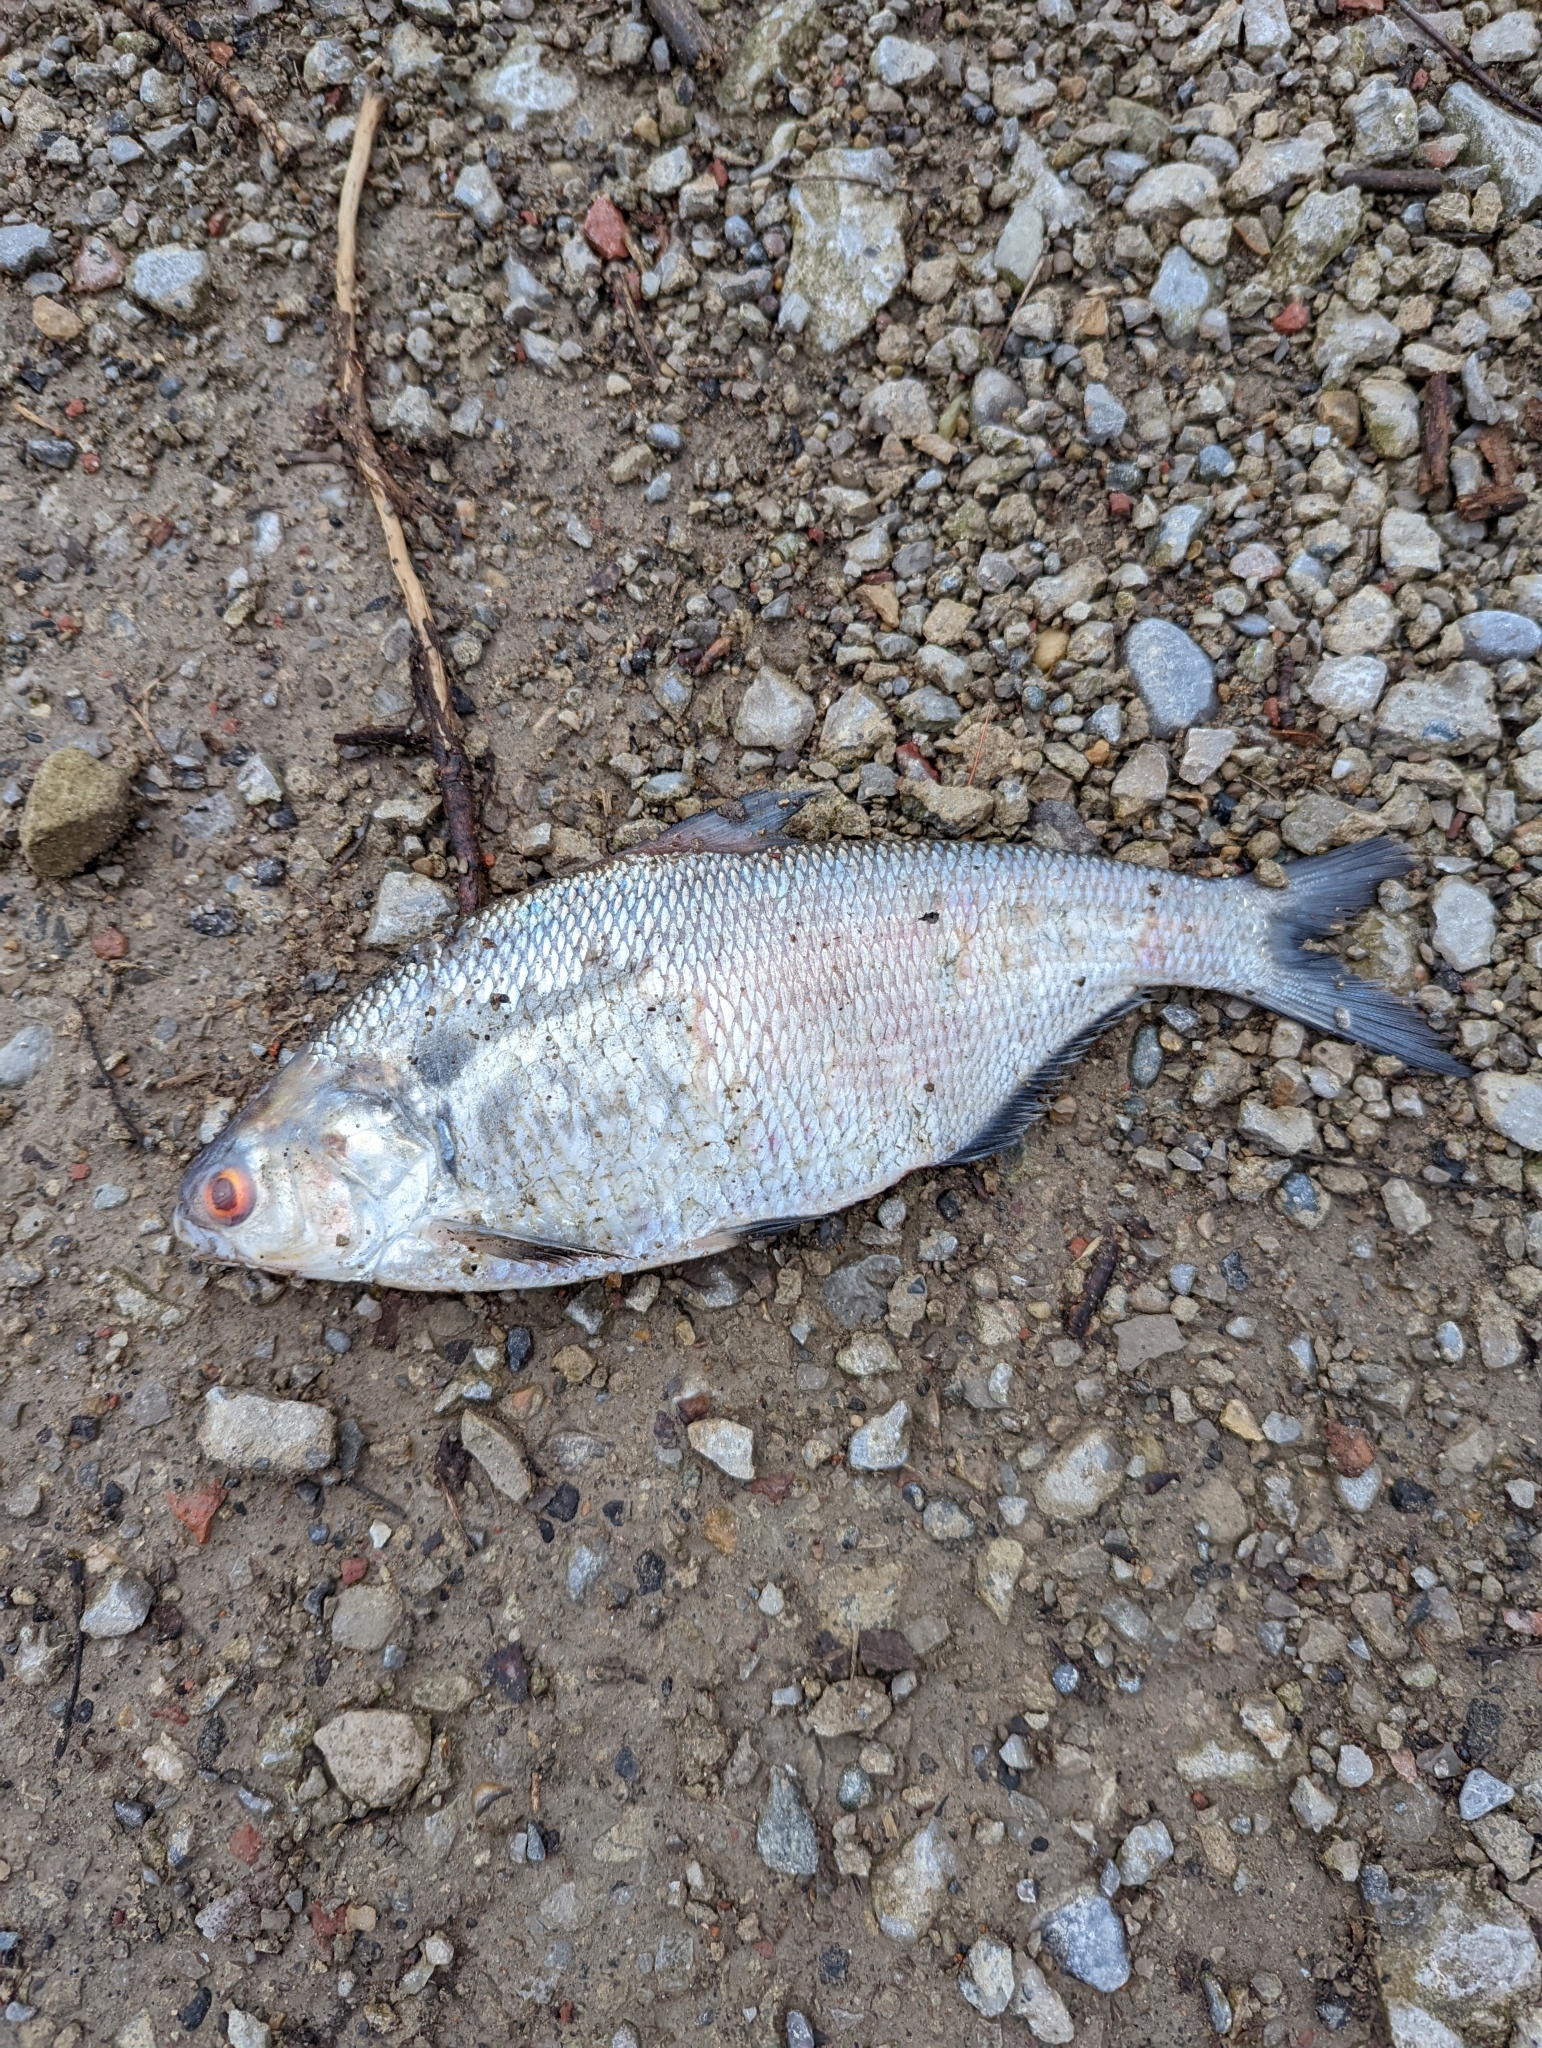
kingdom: Animalia
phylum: Chordata
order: Clupeiformes
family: Clupeidae
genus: Dorosoma
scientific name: Dorosoma cepedianum
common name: Gizzard shad
